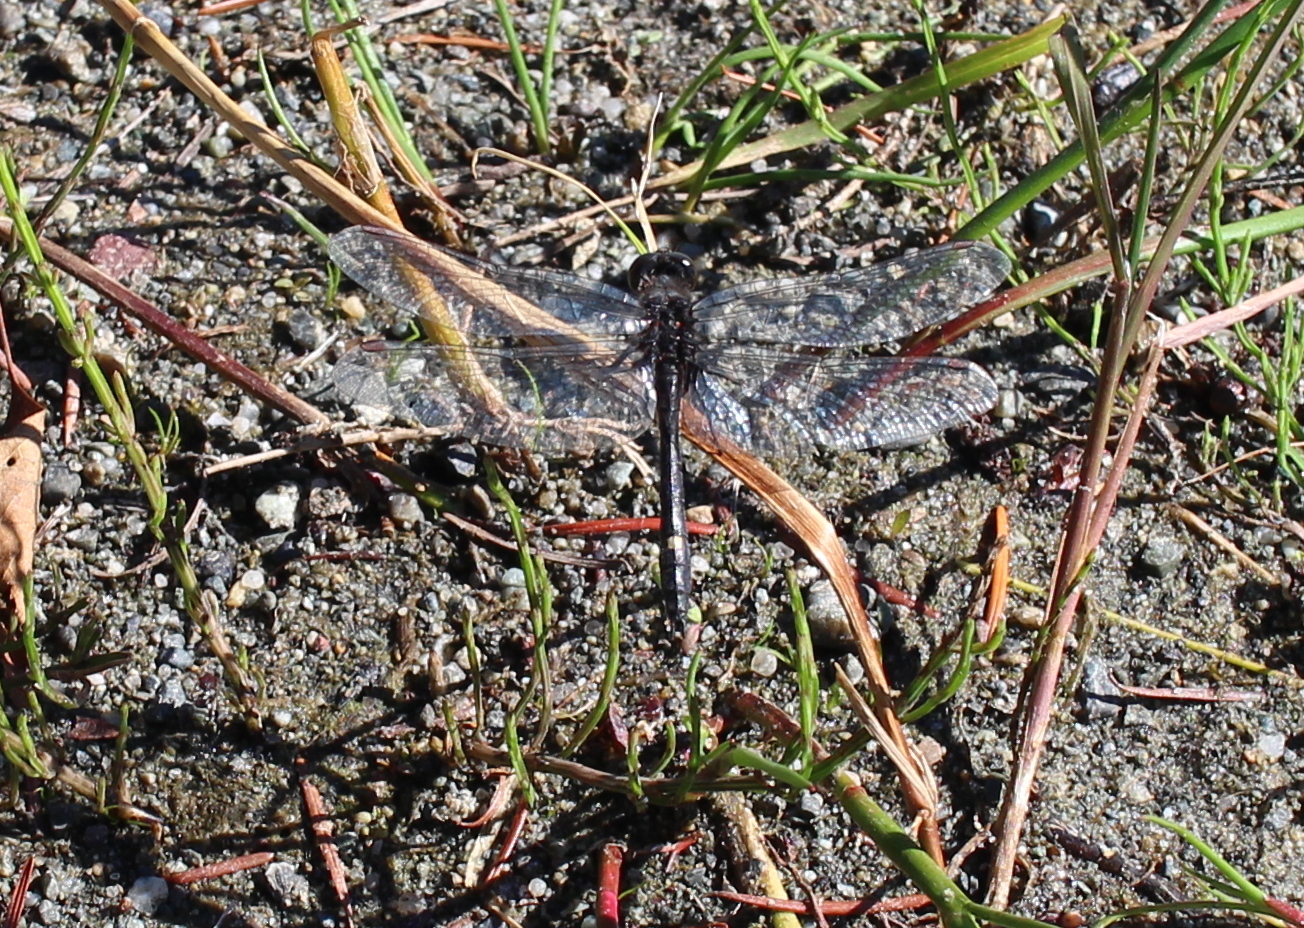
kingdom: Animalia
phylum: Arthropoda
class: Insecta
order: Odonata
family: Libellulidae
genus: Leucorrhinia
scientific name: Leucorrhinia intacta
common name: Dot-tailed whiteface
